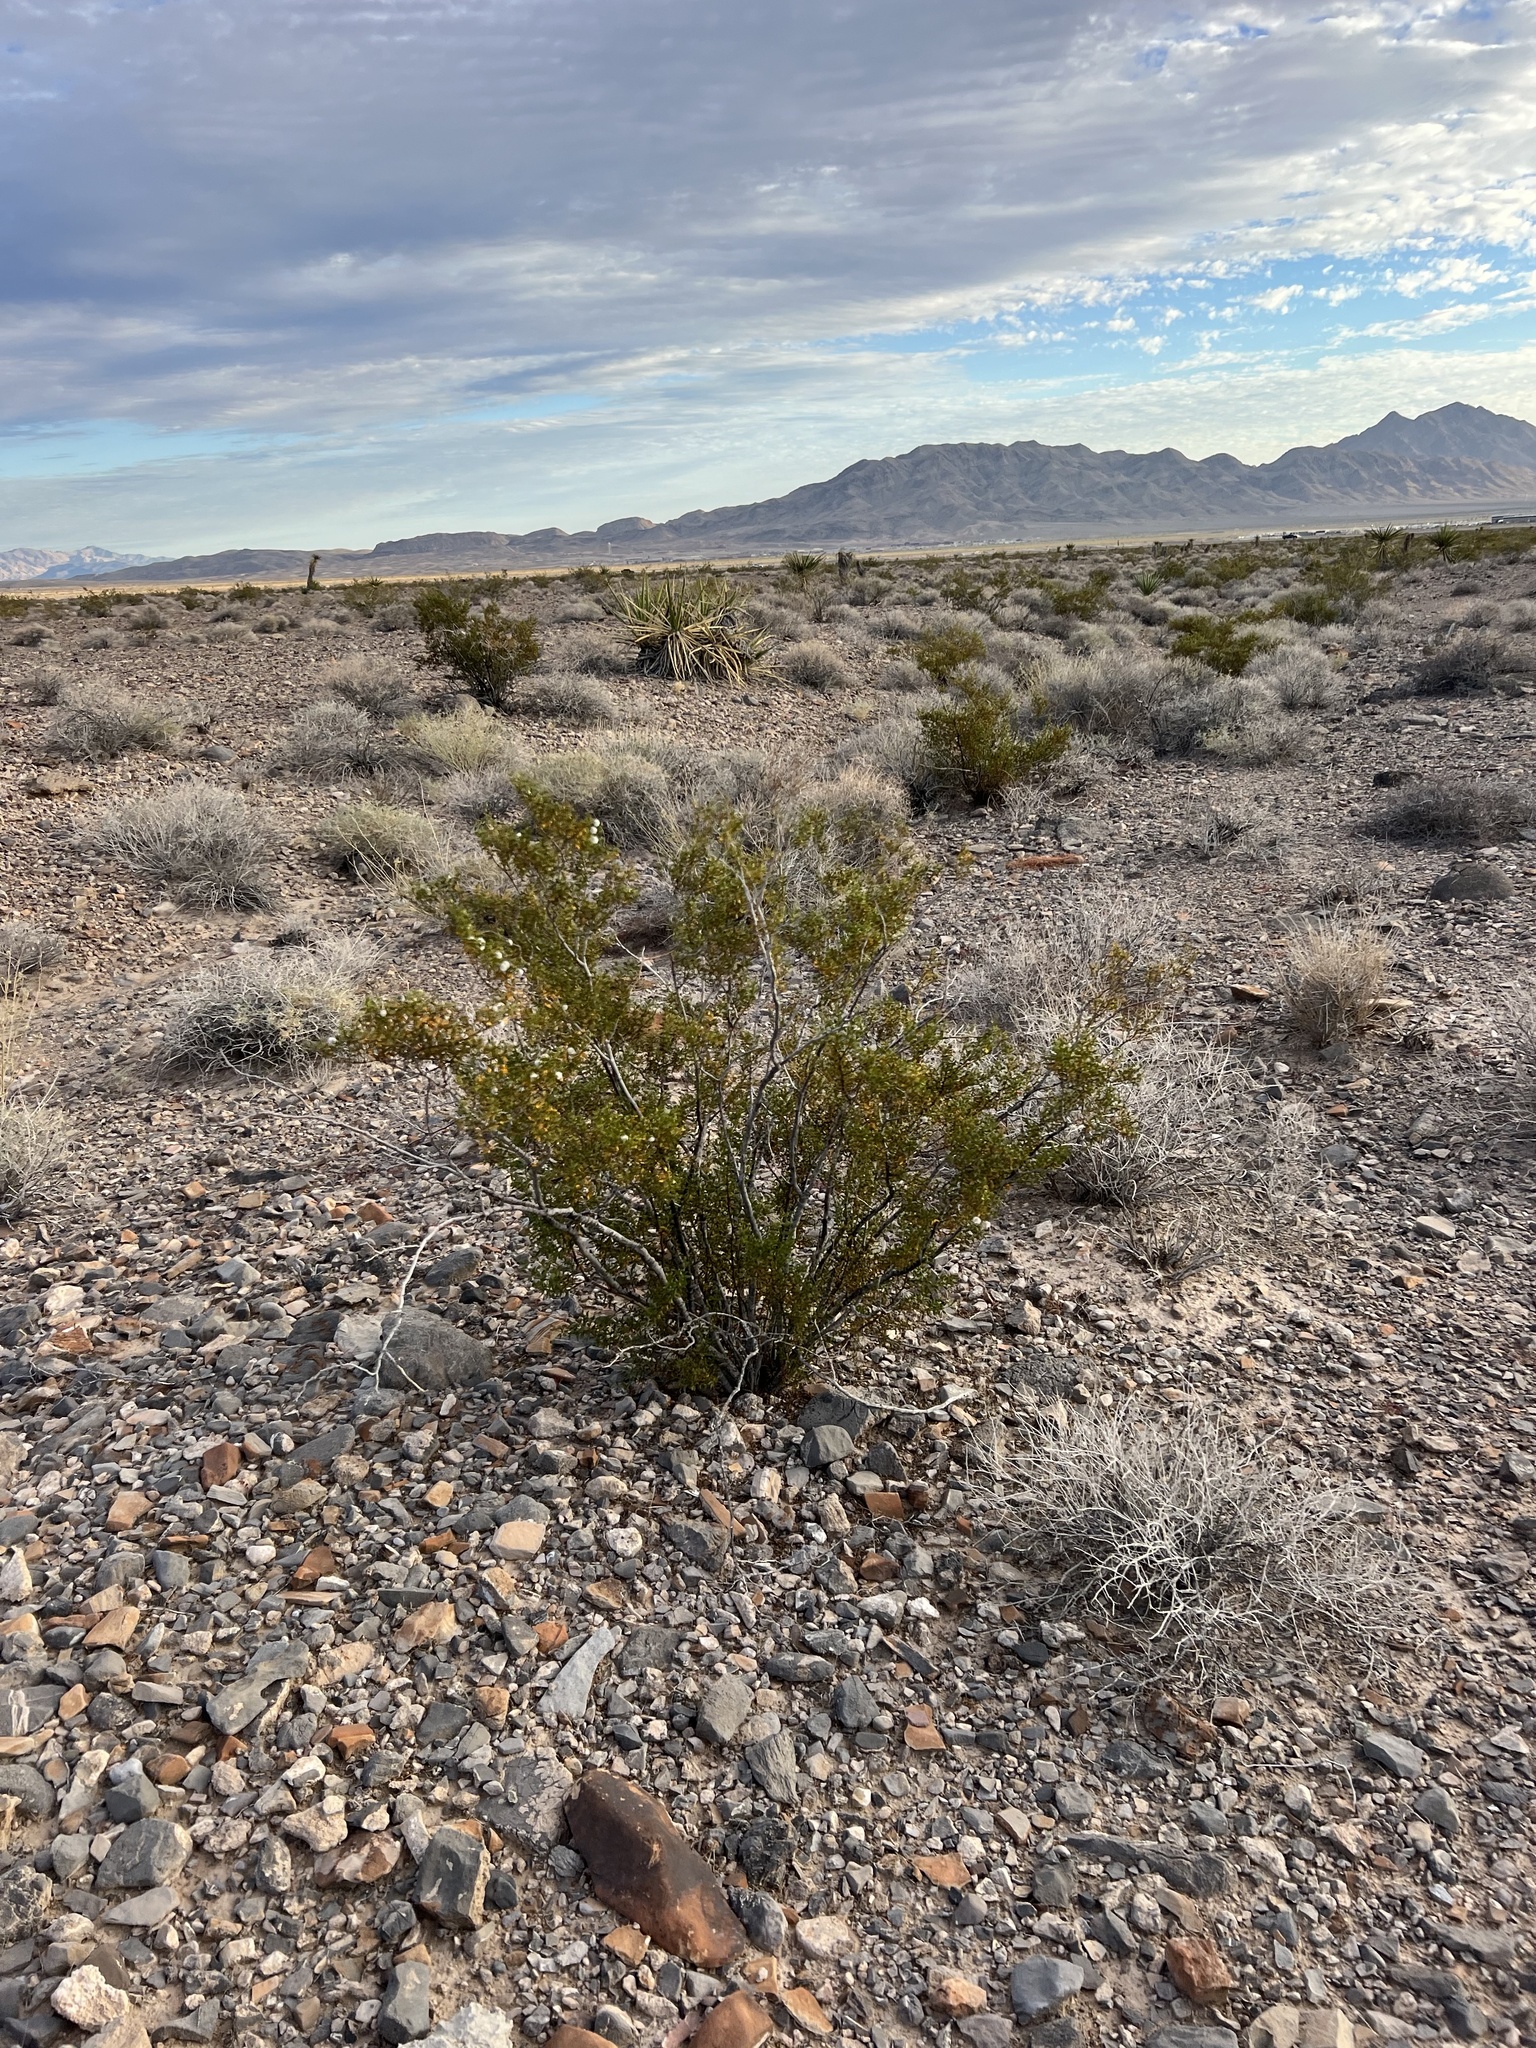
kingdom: Plantae
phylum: Tracheophyta
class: Magnoliopsida
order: Zygophyllales
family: Zygophyllaceae
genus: Larrea
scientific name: Larrea tridentata
